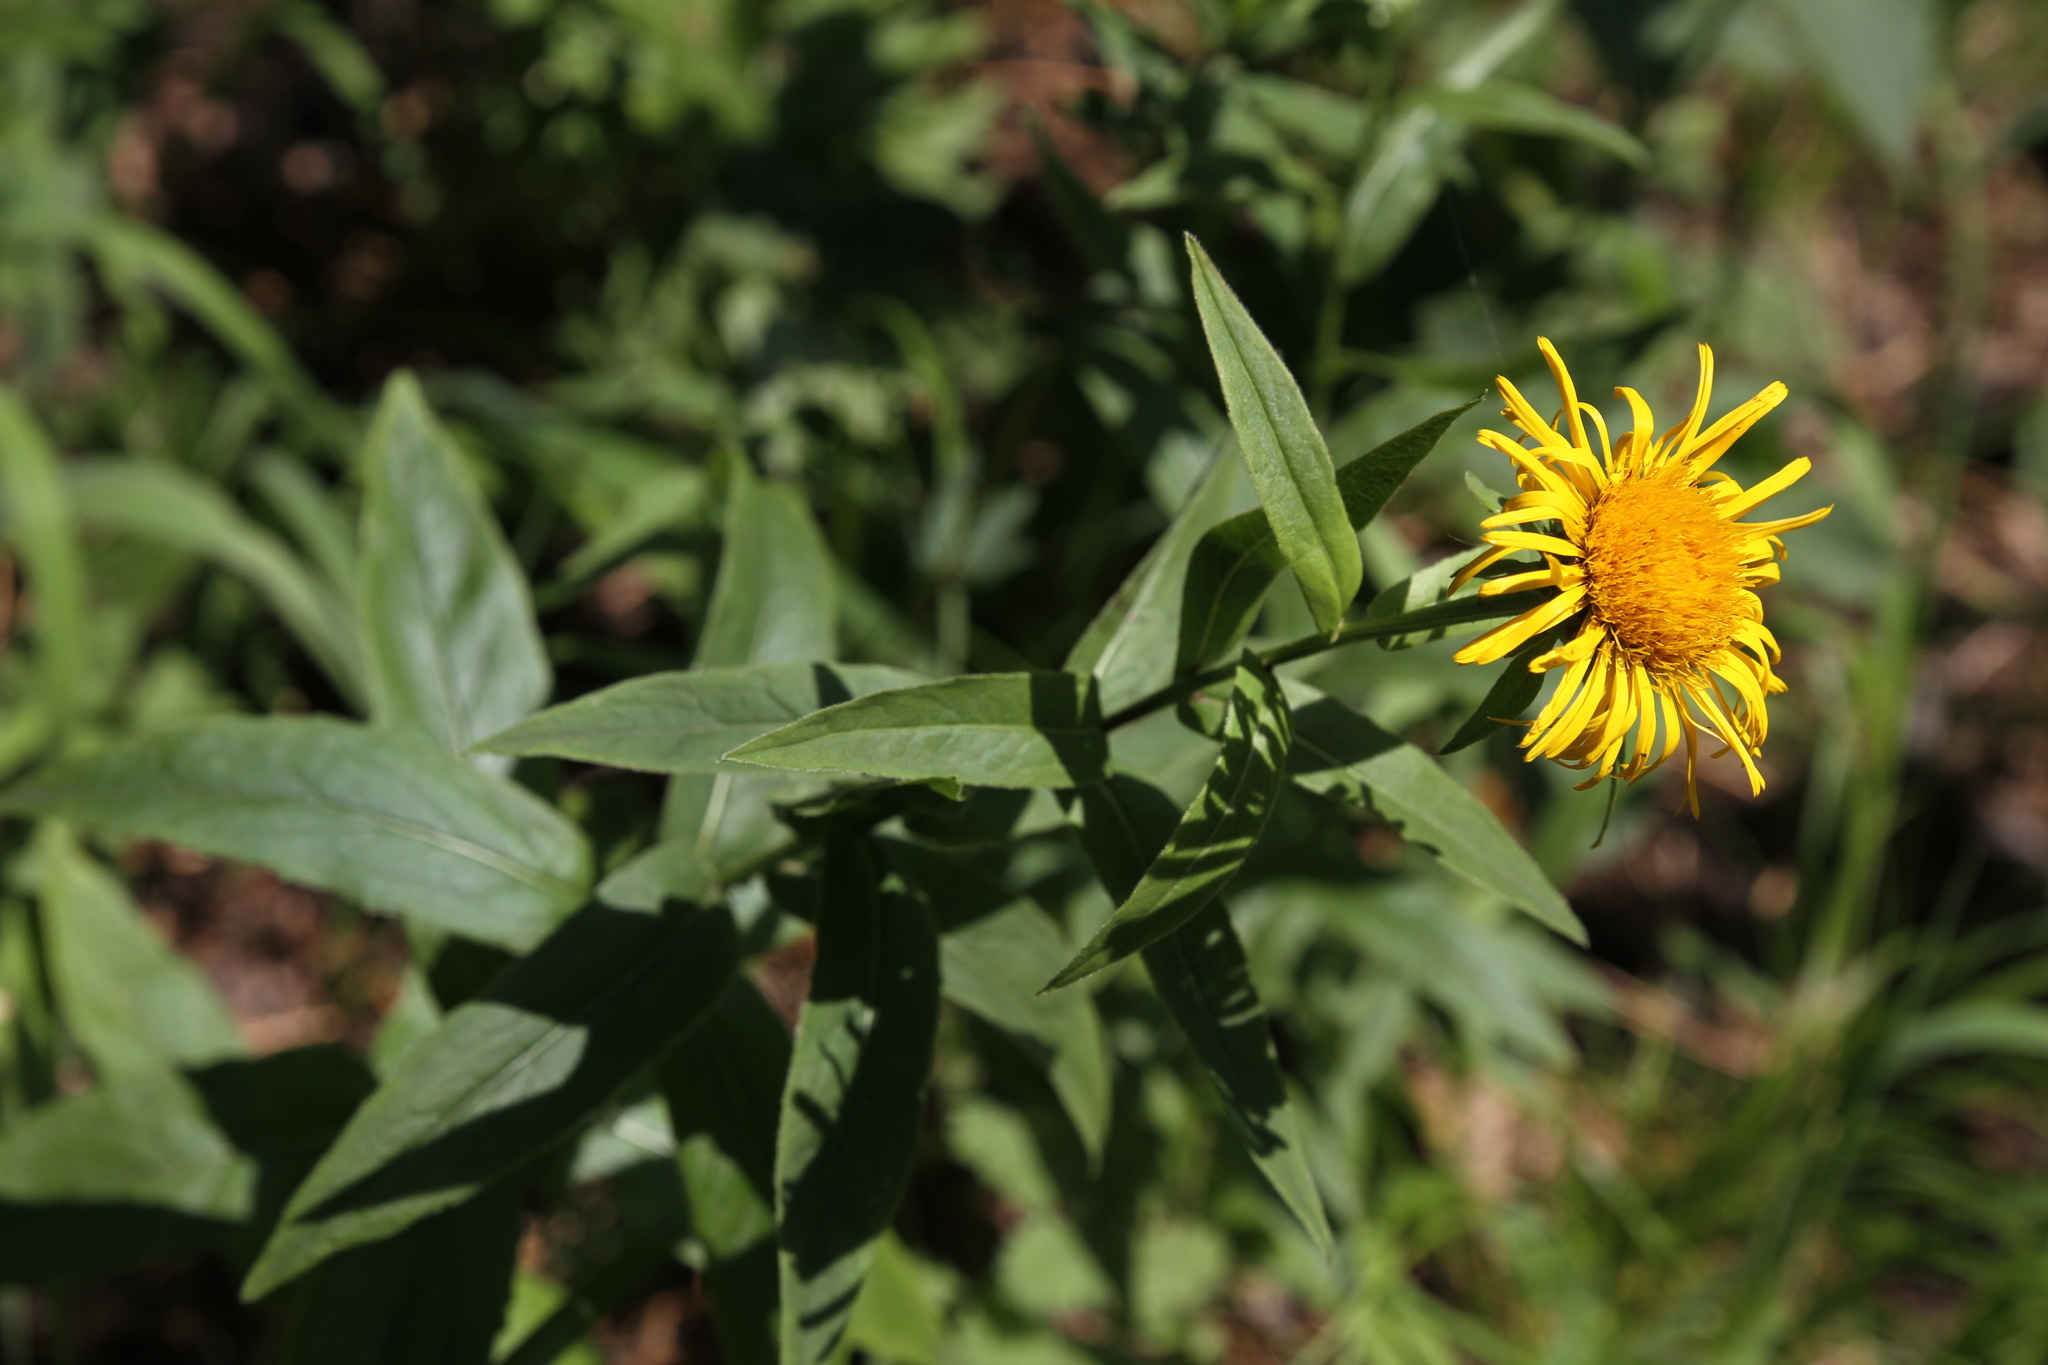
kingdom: Plantae
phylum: Tracheophyta
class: Magnoliopsida
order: Asterales
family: Asteraceae
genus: Pentanema
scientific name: Pentanema salicinum
